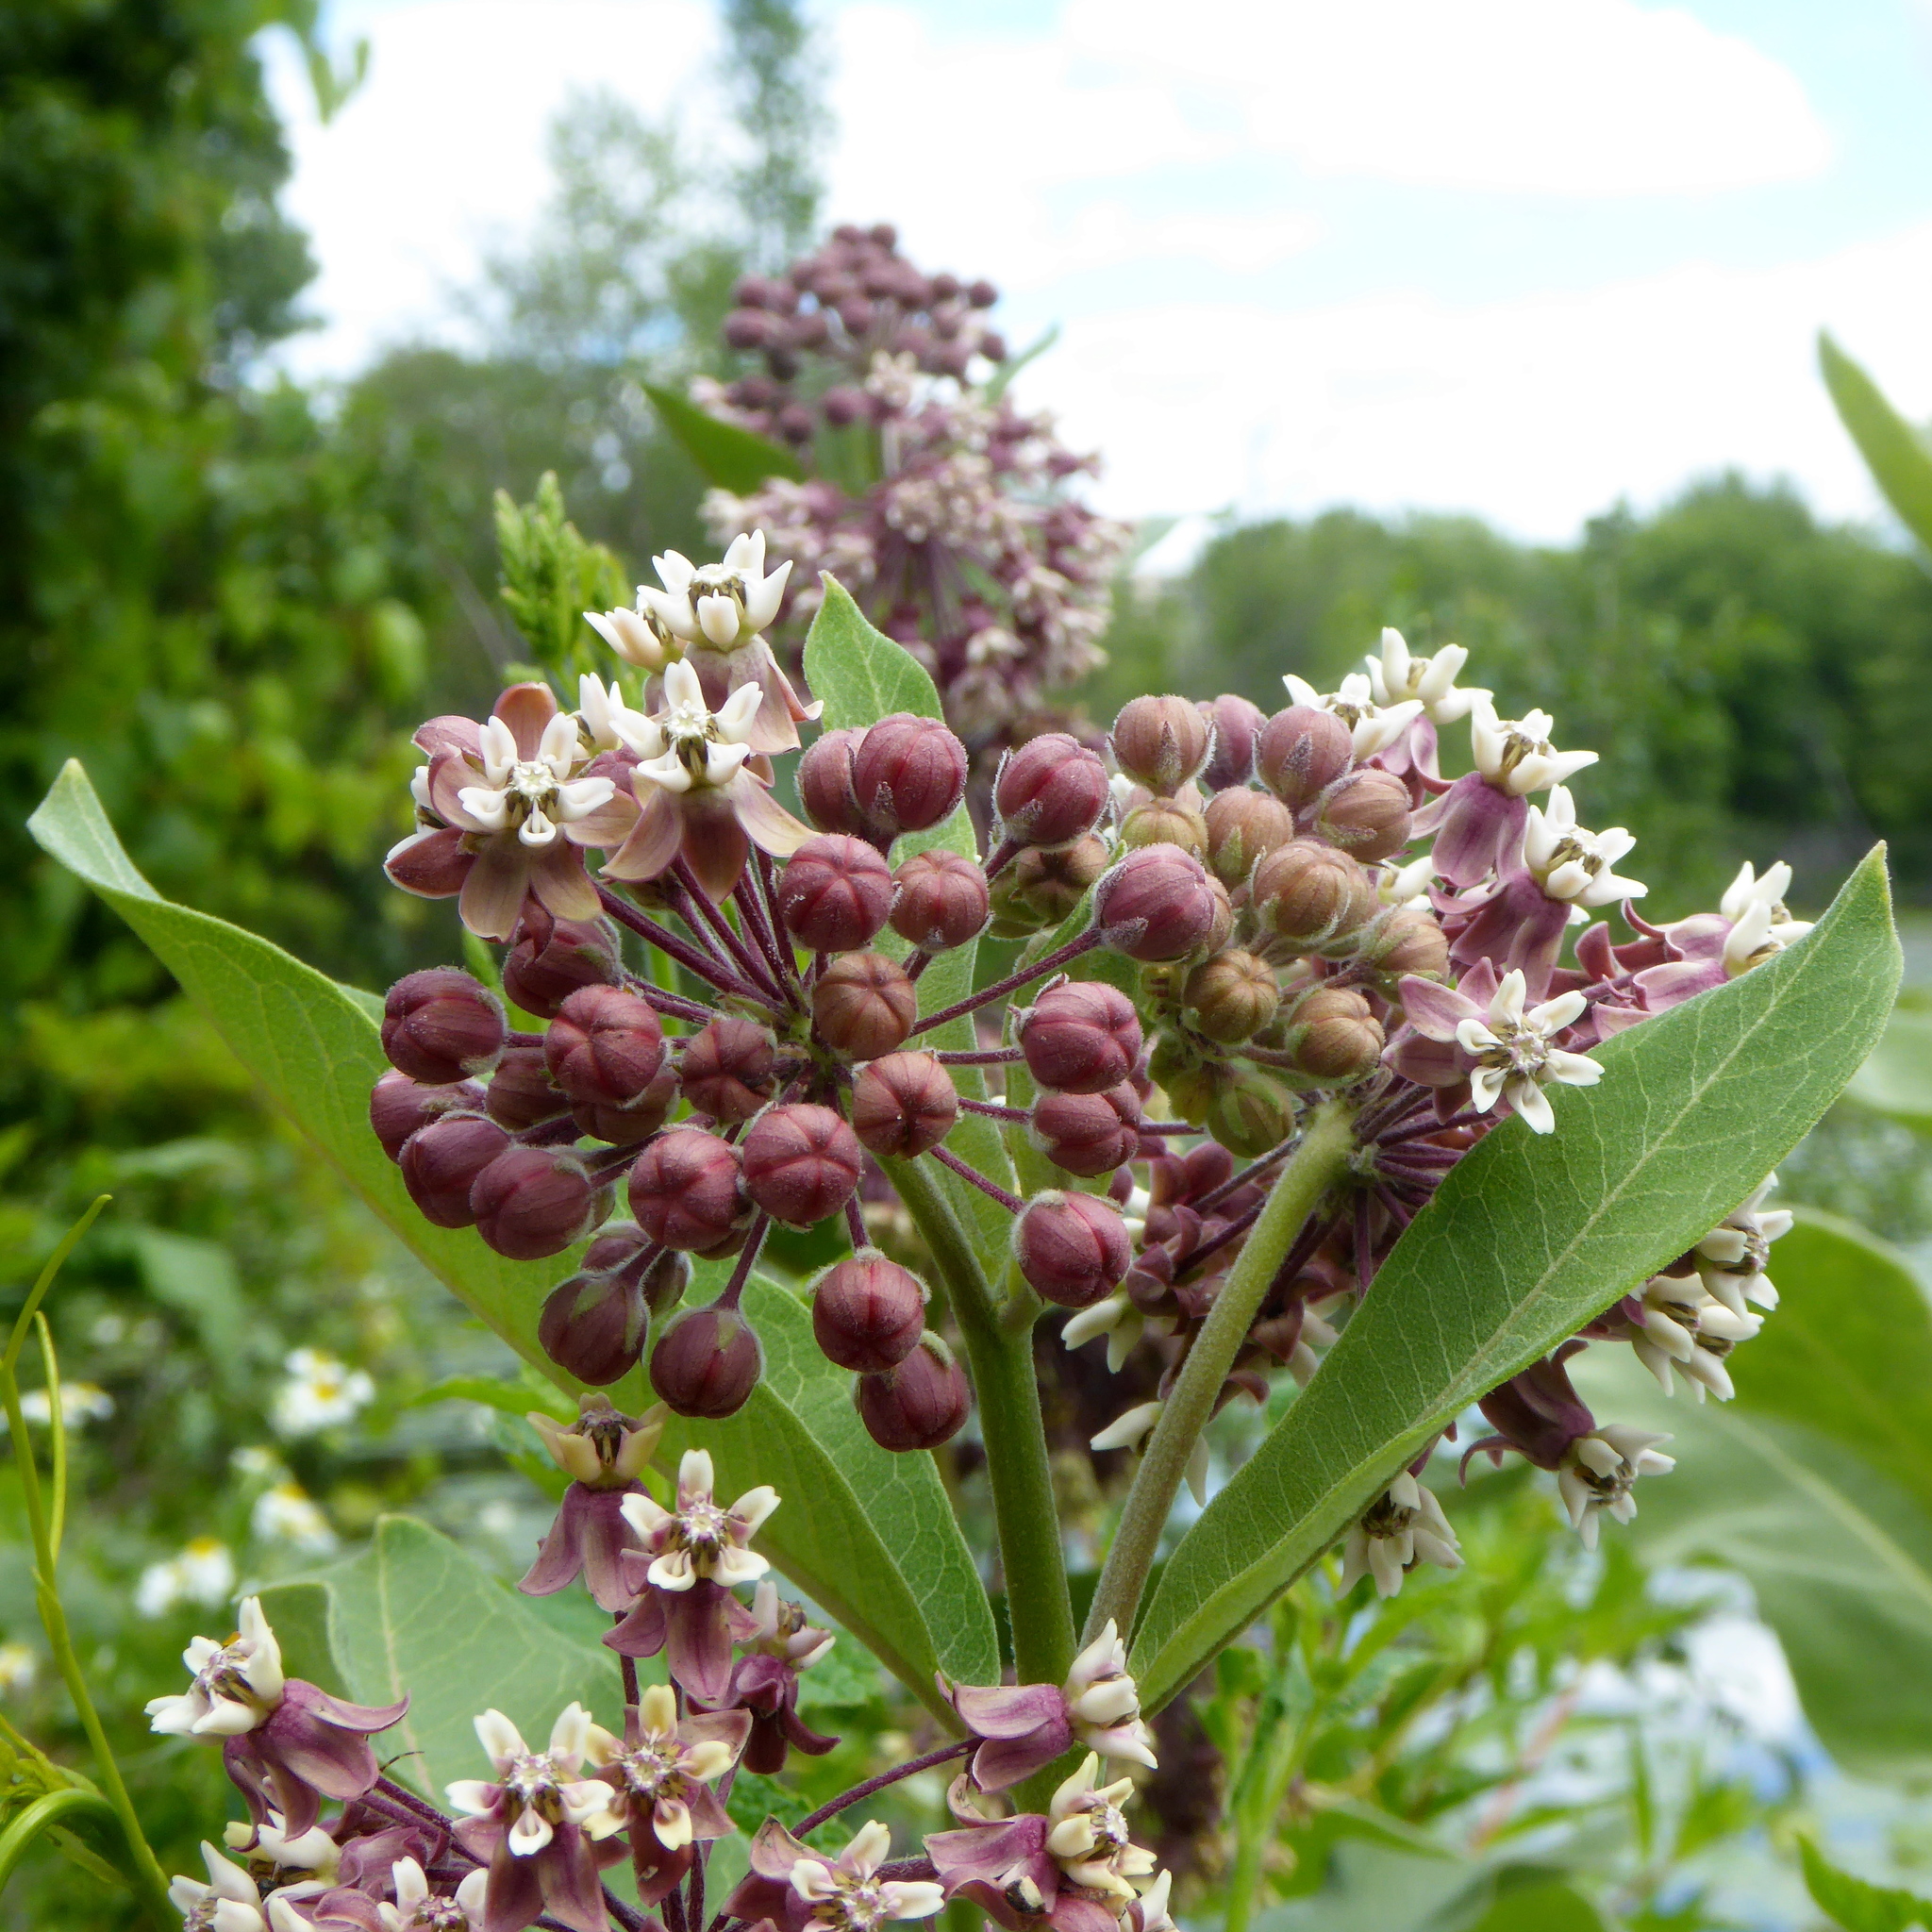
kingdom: Plantae
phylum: Tracheophyta
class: Magnoliopsida
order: Gentianales
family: Apocynaceae
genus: Asclepias
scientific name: Asclepias syriaca
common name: Common milkweed
